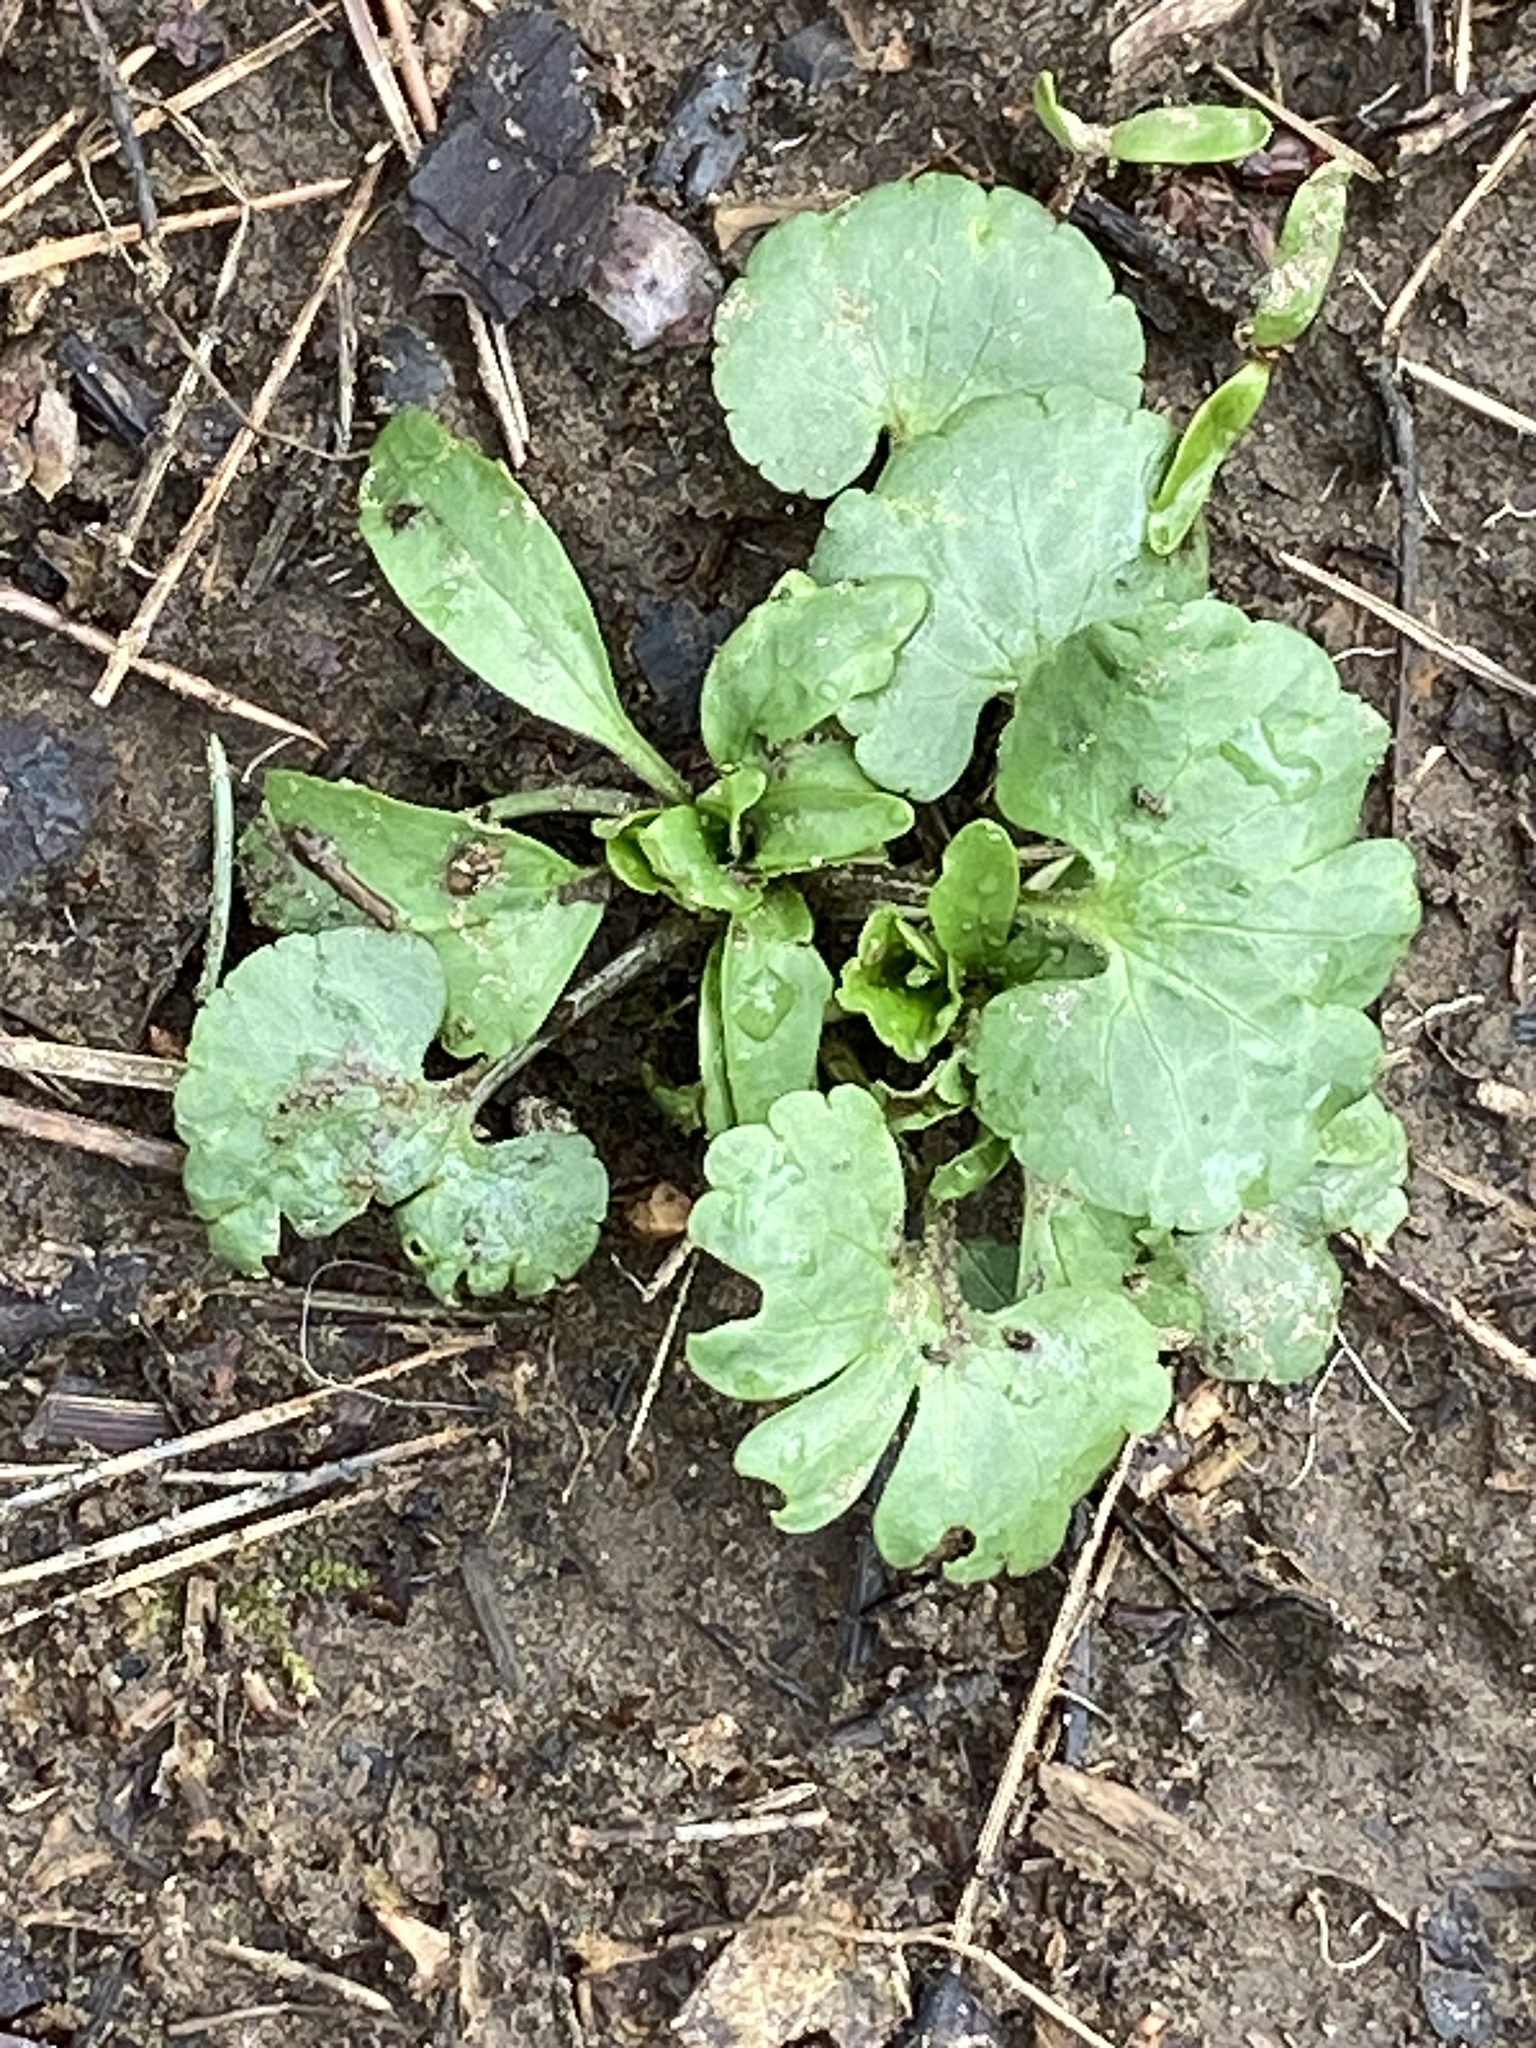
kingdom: Plantae
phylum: Tracheophyta
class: Magnoliopsida
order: Ranunculales
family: Ranunculaceae
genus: Ranunculus
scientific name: Ranunculus abortivus
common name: Early wood buttercup
